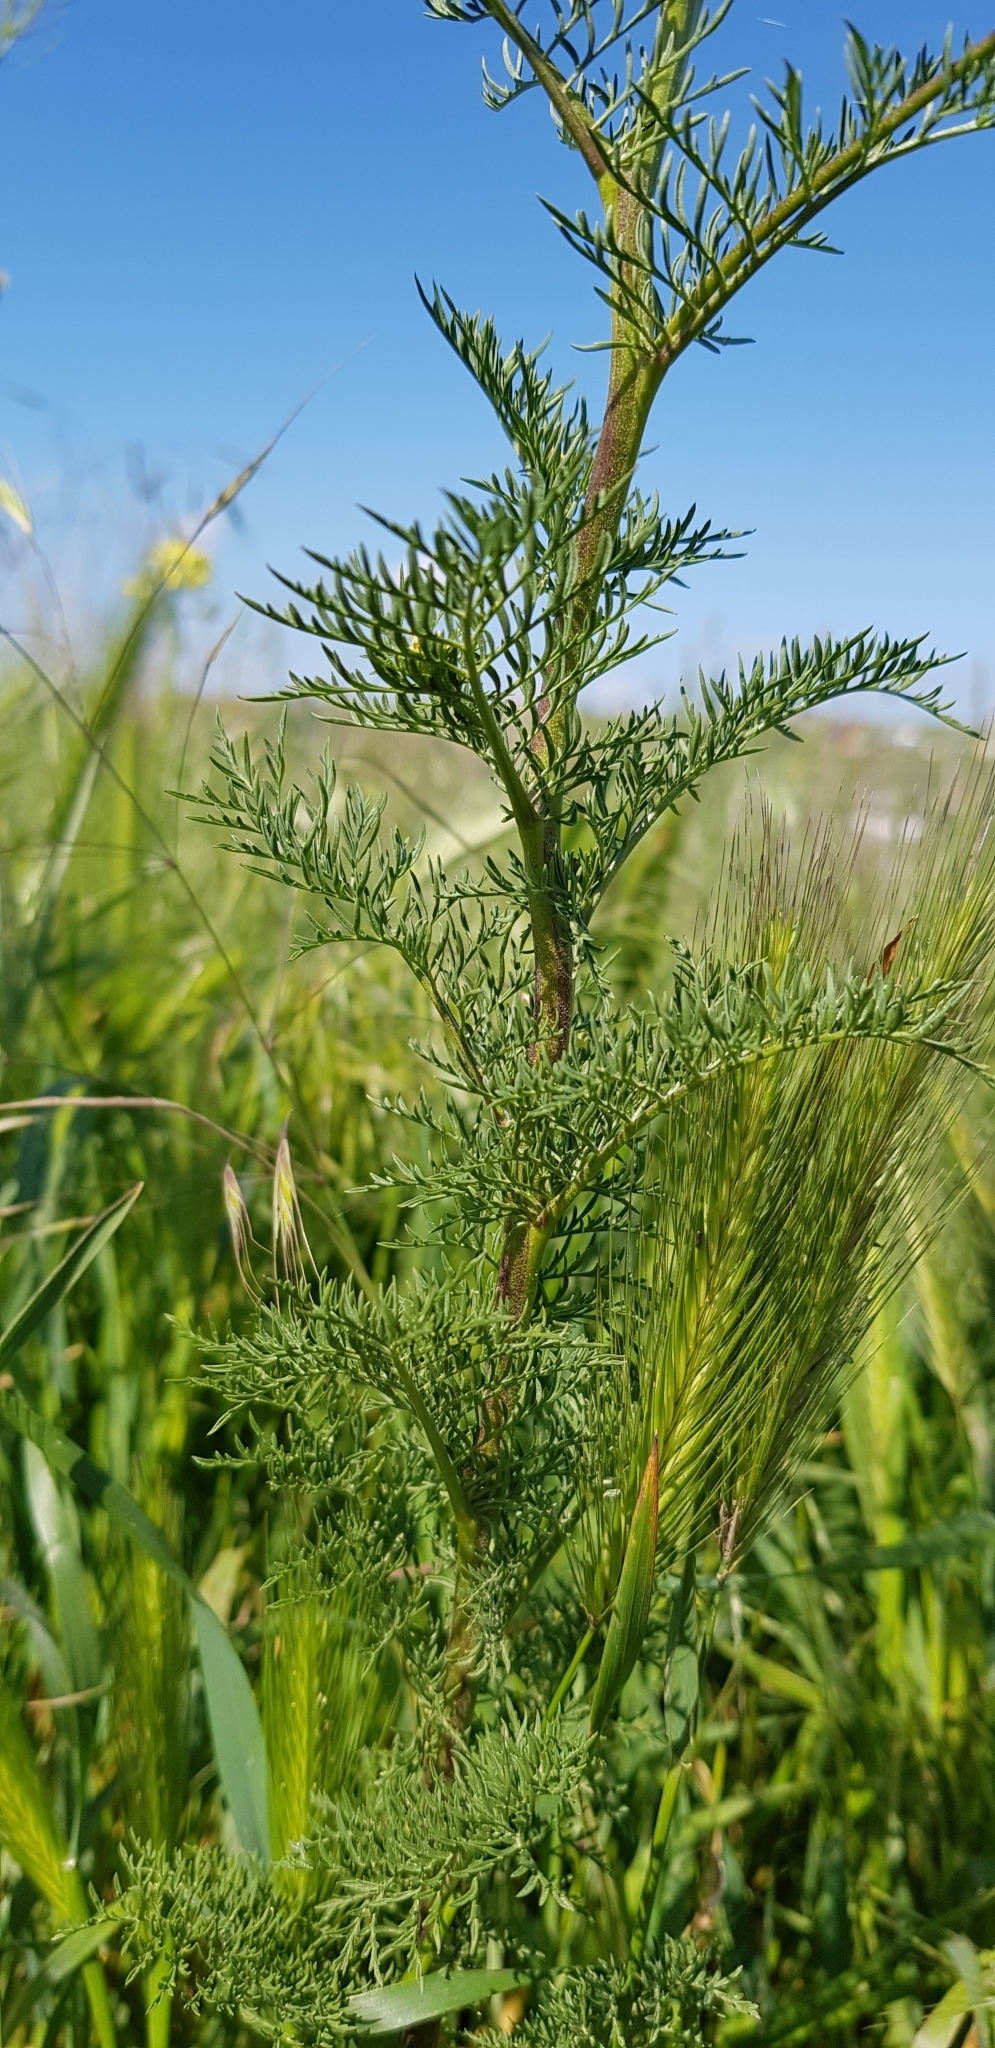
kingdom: Plantae
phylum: Tracheophyta
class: Magnoliopsida
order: Brassicales
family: Brassicaceae
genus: Descurainia
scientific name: Descurainia sophia
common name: Flixweed
